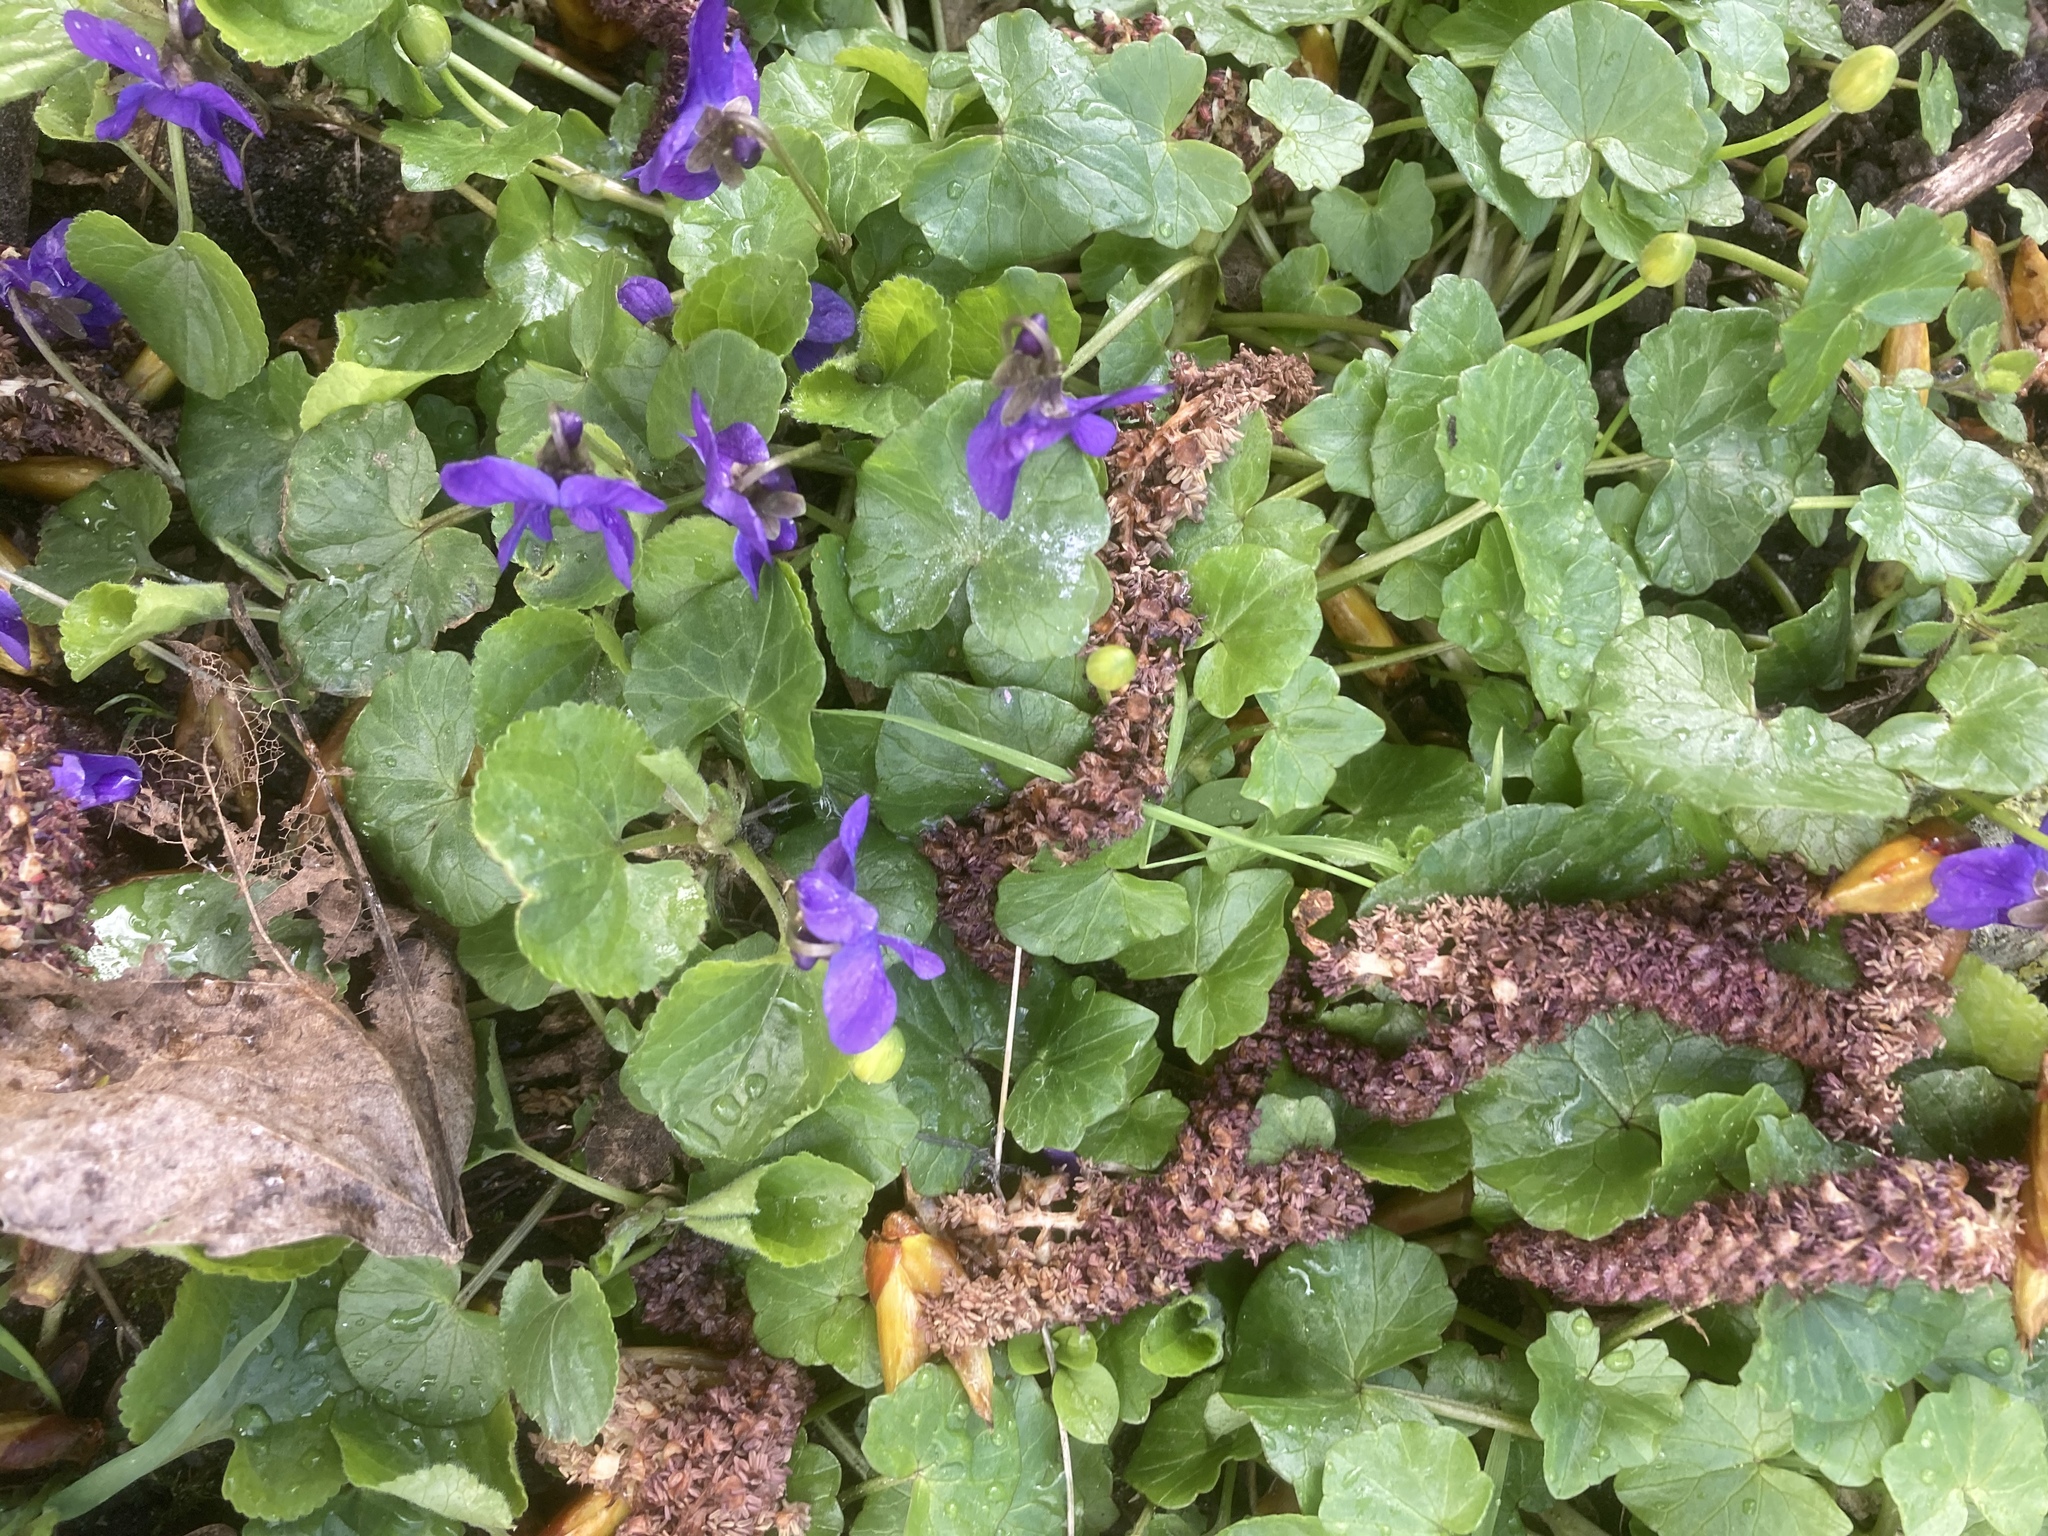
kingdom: Plantae
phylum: Tracheophyta
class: Magnoliopsida
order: Malpighiales
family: Violaceae
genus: Viola
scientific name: Viola odorata
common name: Sweet violet
